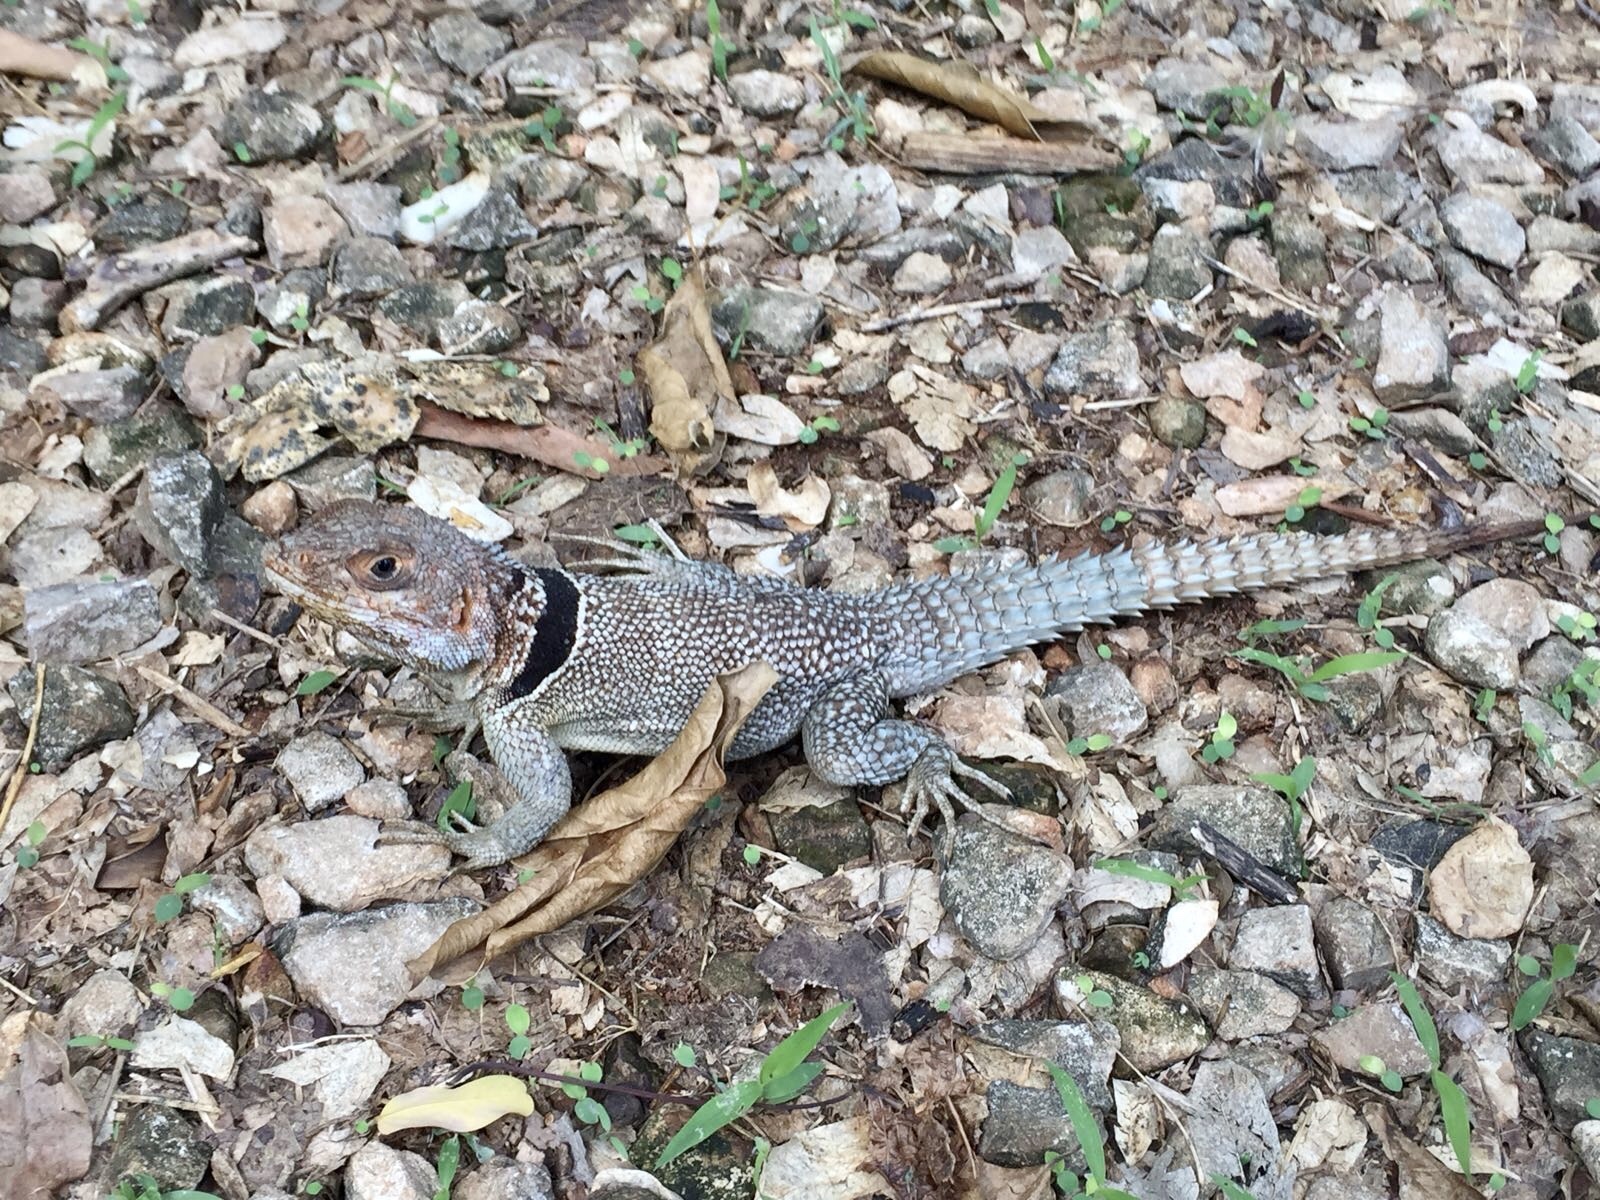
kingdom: Animalia
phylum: Chordata
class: Squamata
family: Opluridae
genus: Oplurus
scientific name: Oplurus cuvieri
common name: Cuvier's madagascar swift
